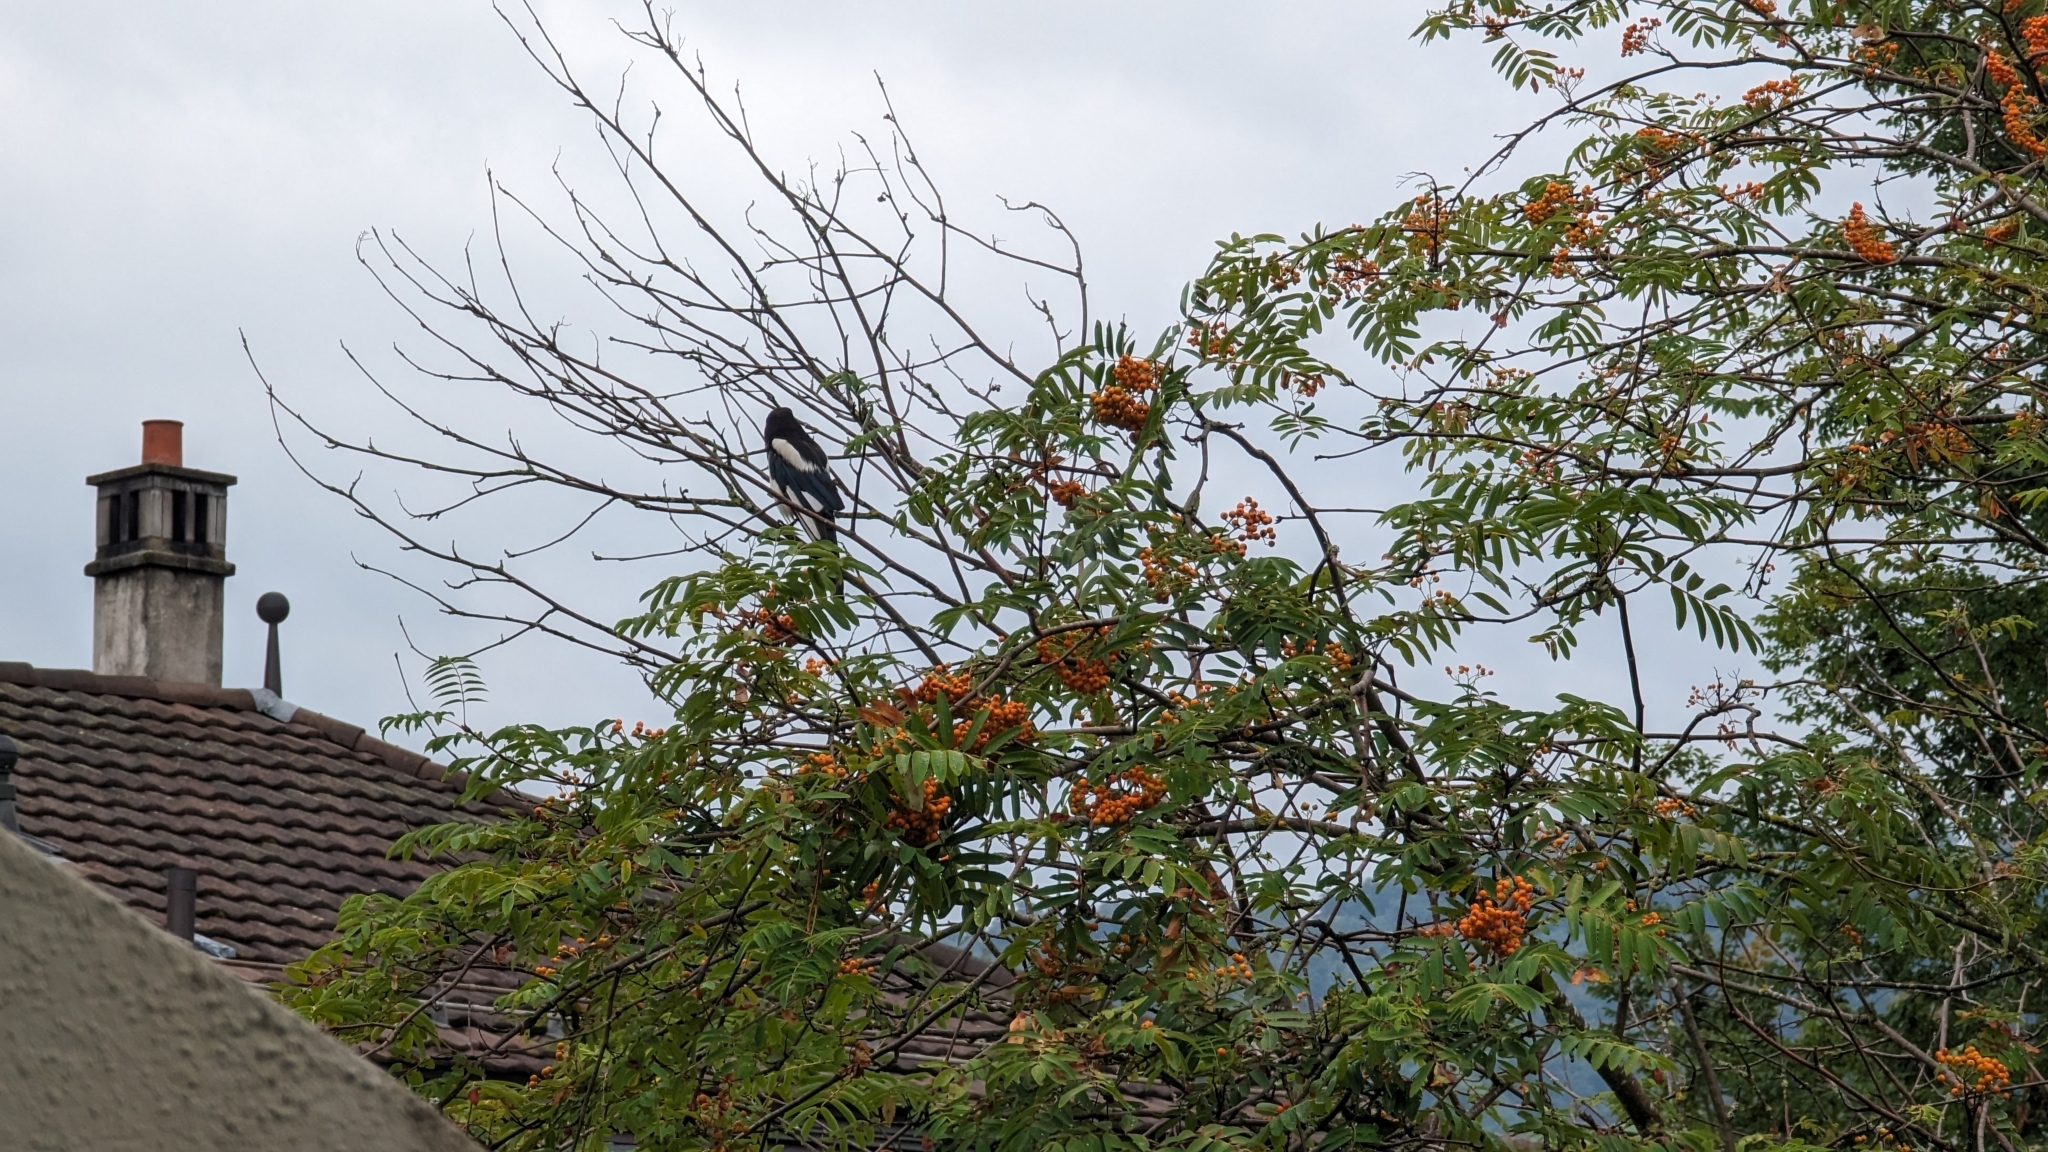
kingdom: Animalia
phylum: Chordata
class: Aves
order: Passeriformes
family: Corvidae
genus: Pica
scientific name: Pica pica
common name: Eurasian magpie
